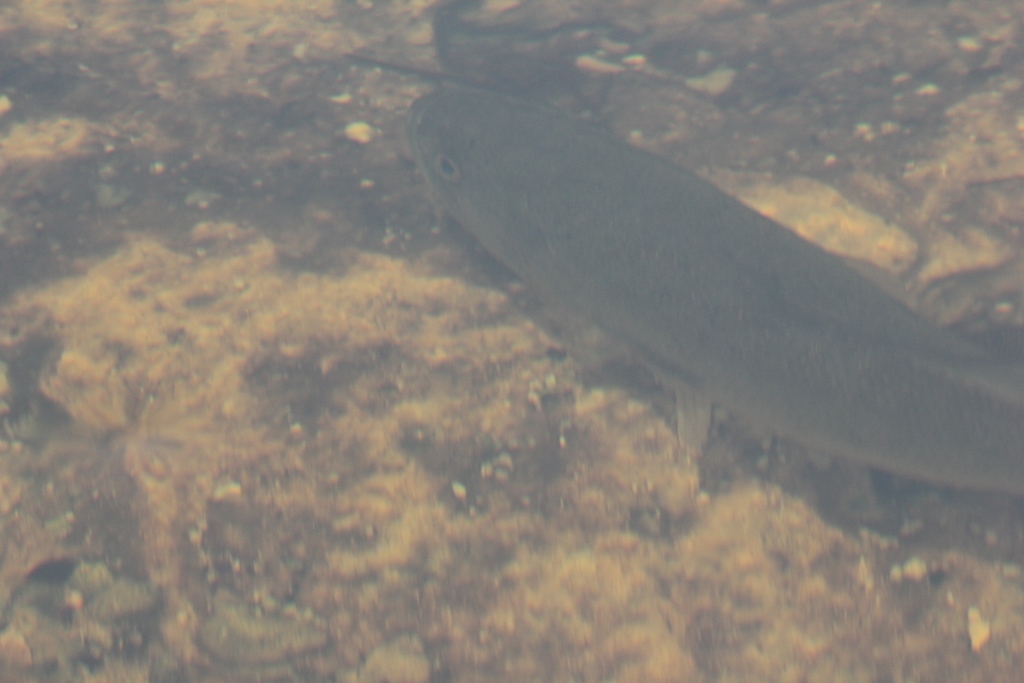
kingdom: Animalia
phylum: Chordata
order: Perciformes
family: Centrarchidae
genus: Micropterus
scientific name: Micropterus salmoides
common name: Largemouth bass
